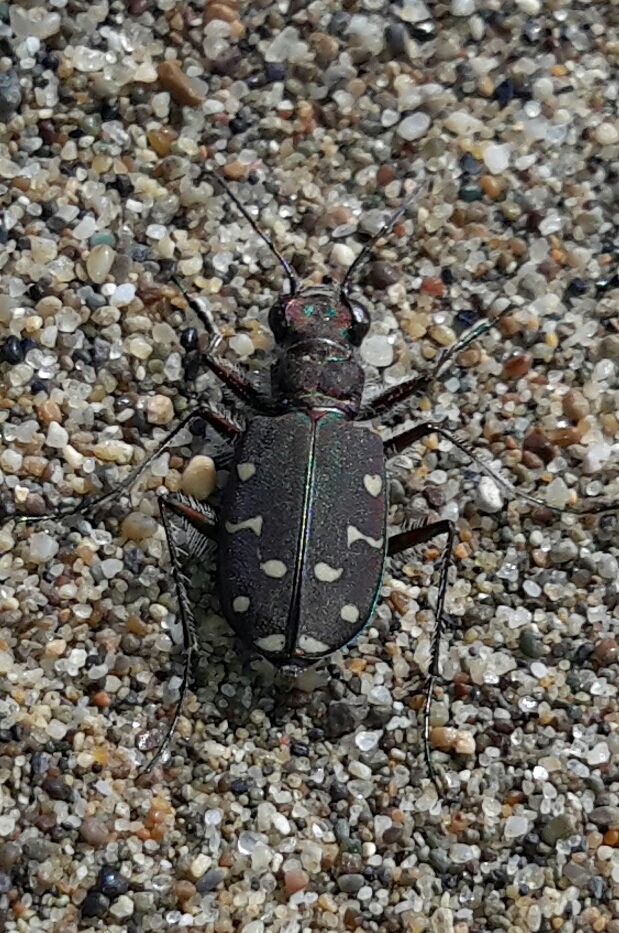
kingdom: Animalia
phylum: Arthropoda
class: Insecta
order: Coleoptera
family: Carabidae
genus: Cicindela
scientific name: Cicindela oregona
